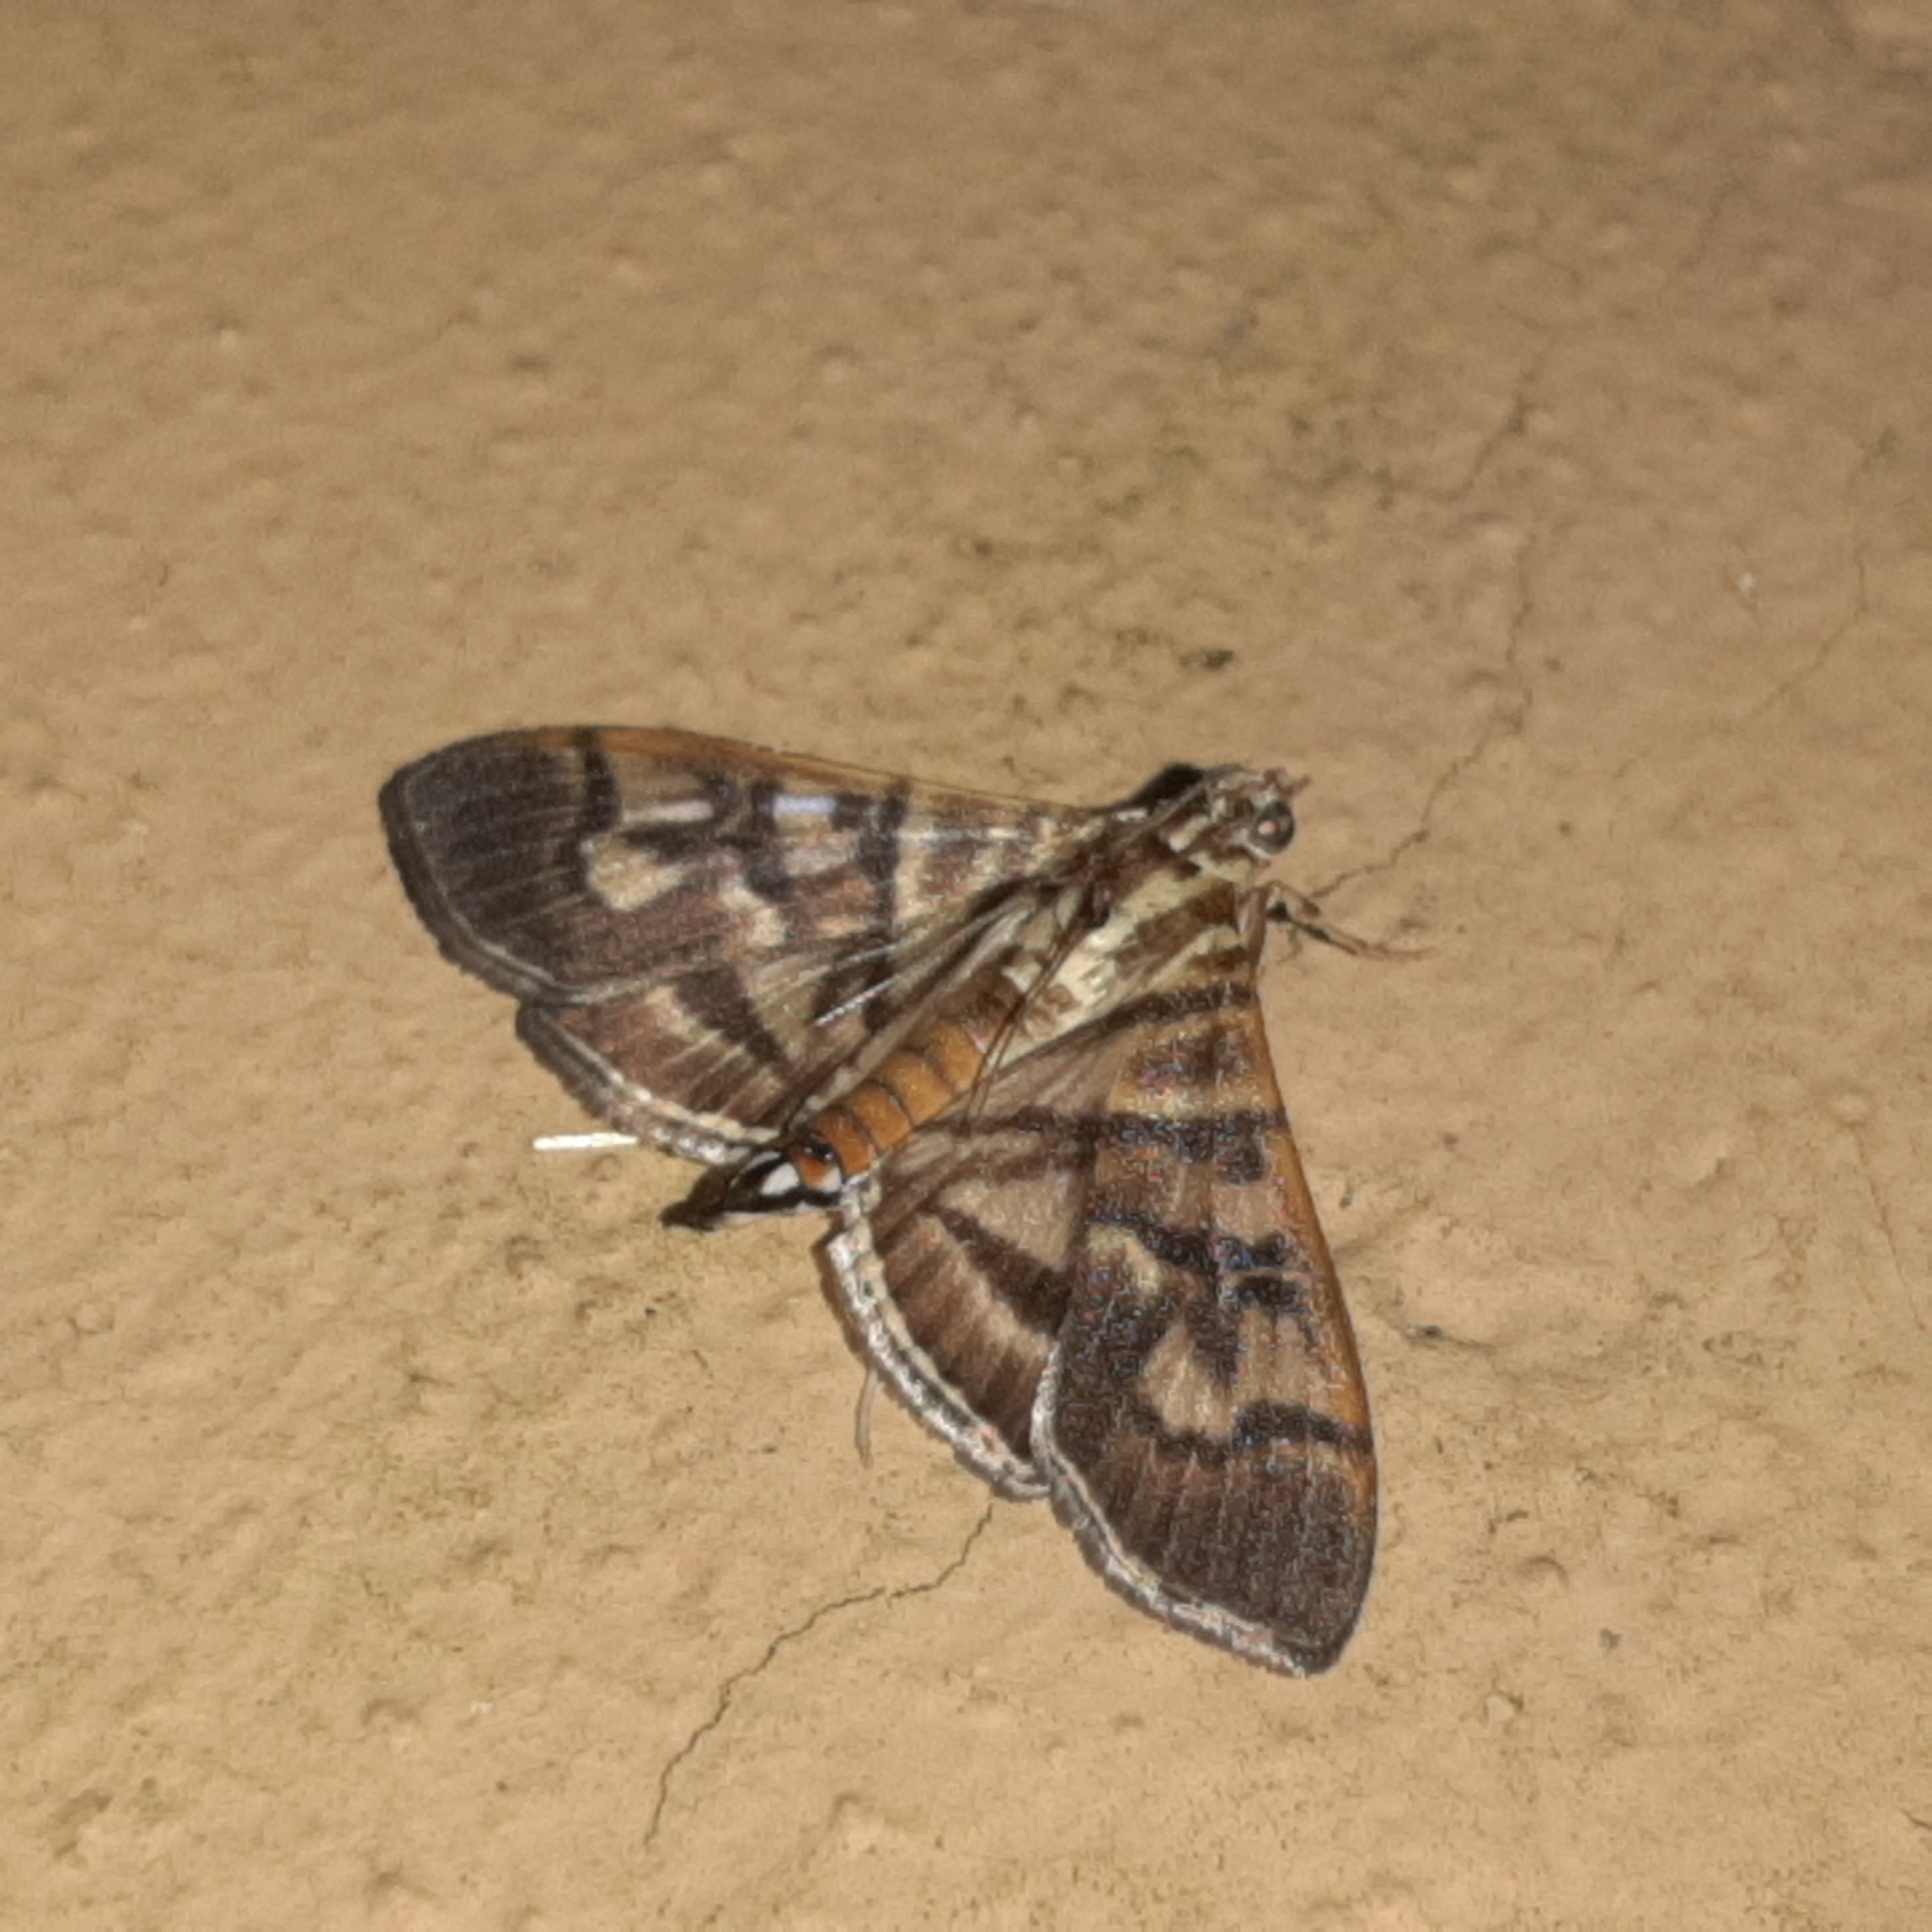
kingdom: Animalia
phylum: Arthropoda
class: Insecta
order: Lepidoptera
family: Crambidae
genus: Pilocrocis
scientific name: Pilocrocis lauralis
